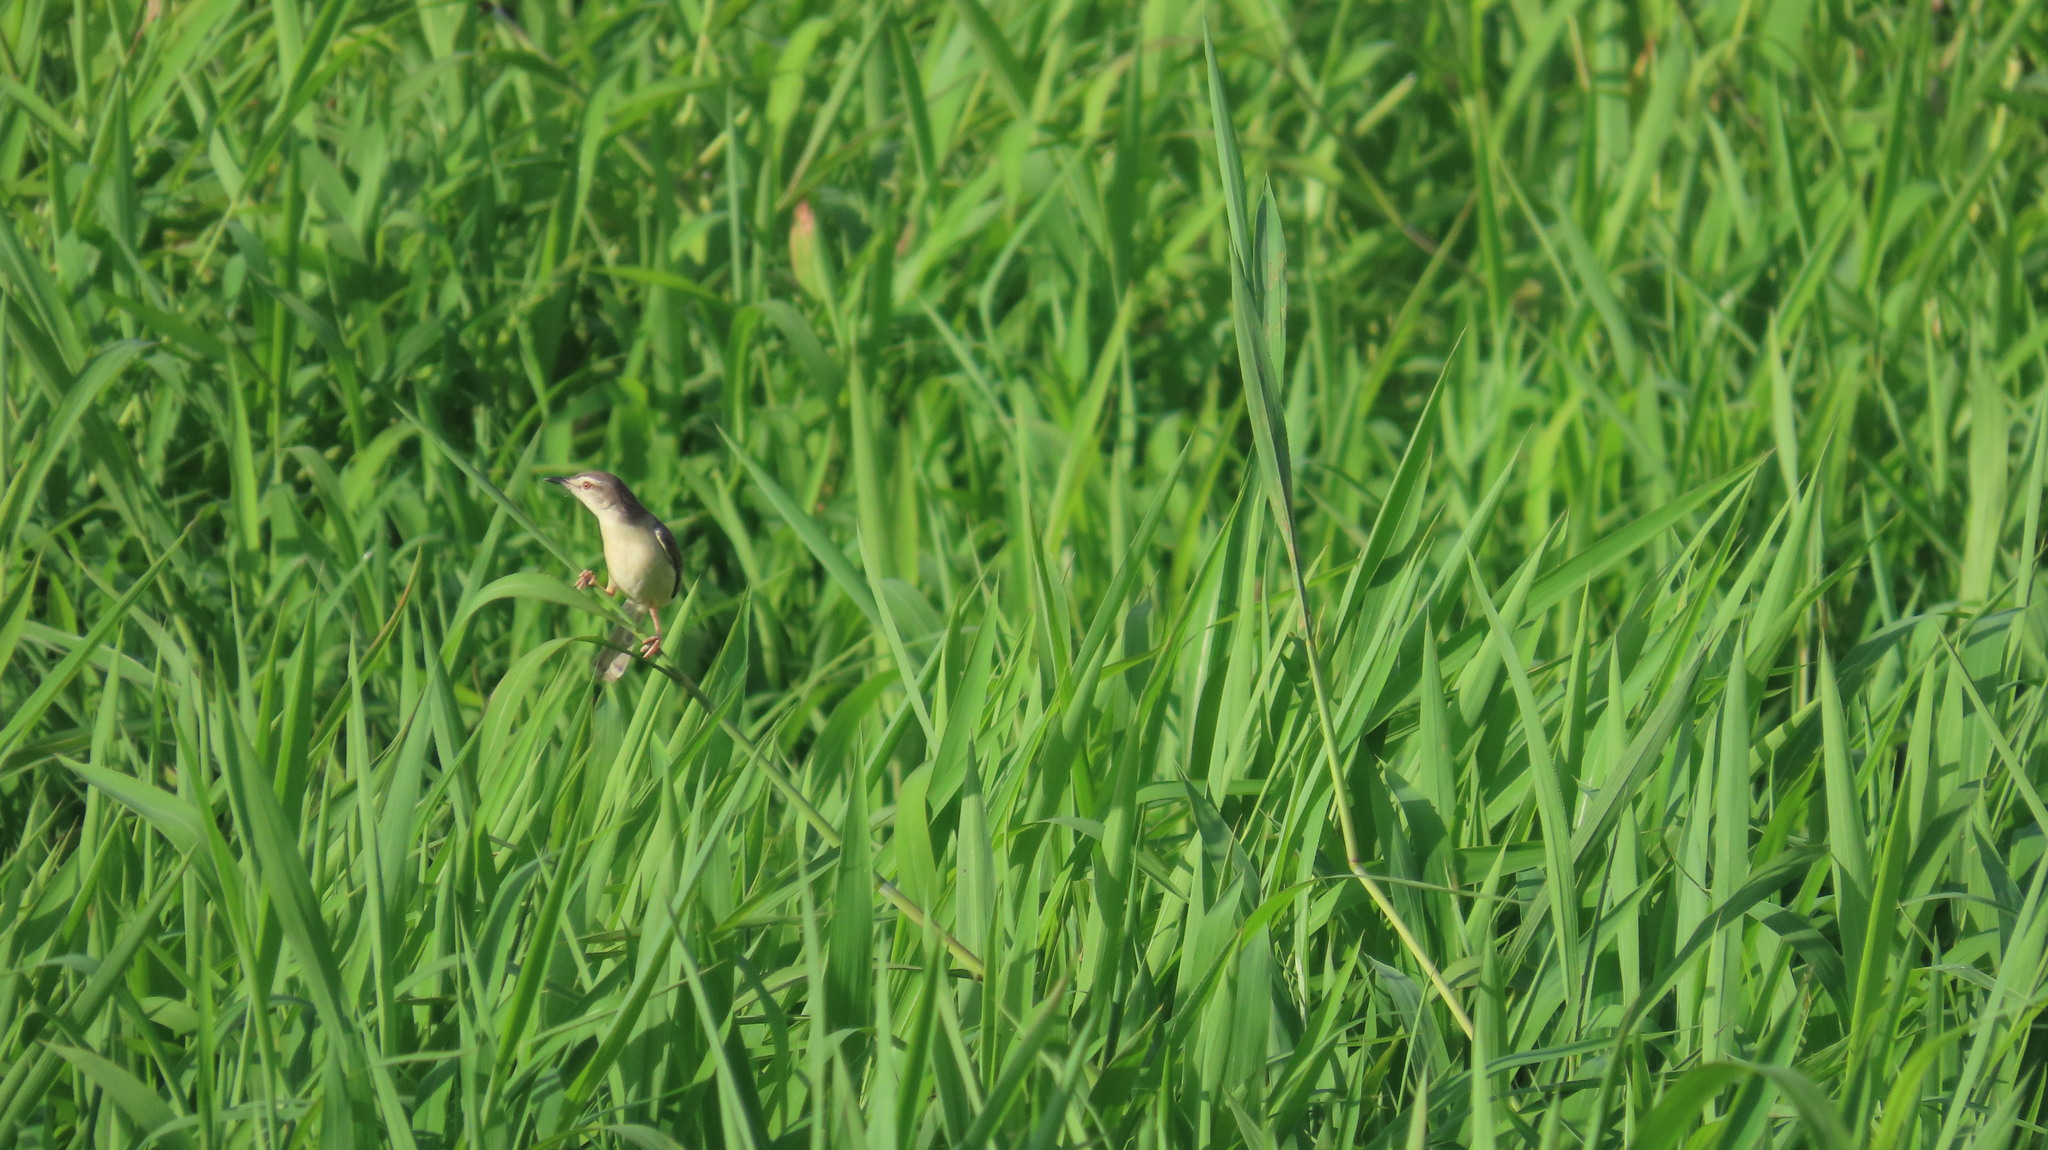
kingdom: Animalia
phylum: Chordata
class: Aves
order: Passeriformes
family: Cisticolidae
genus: Prinia
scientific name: Prinia inornata
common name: Plain prinia
